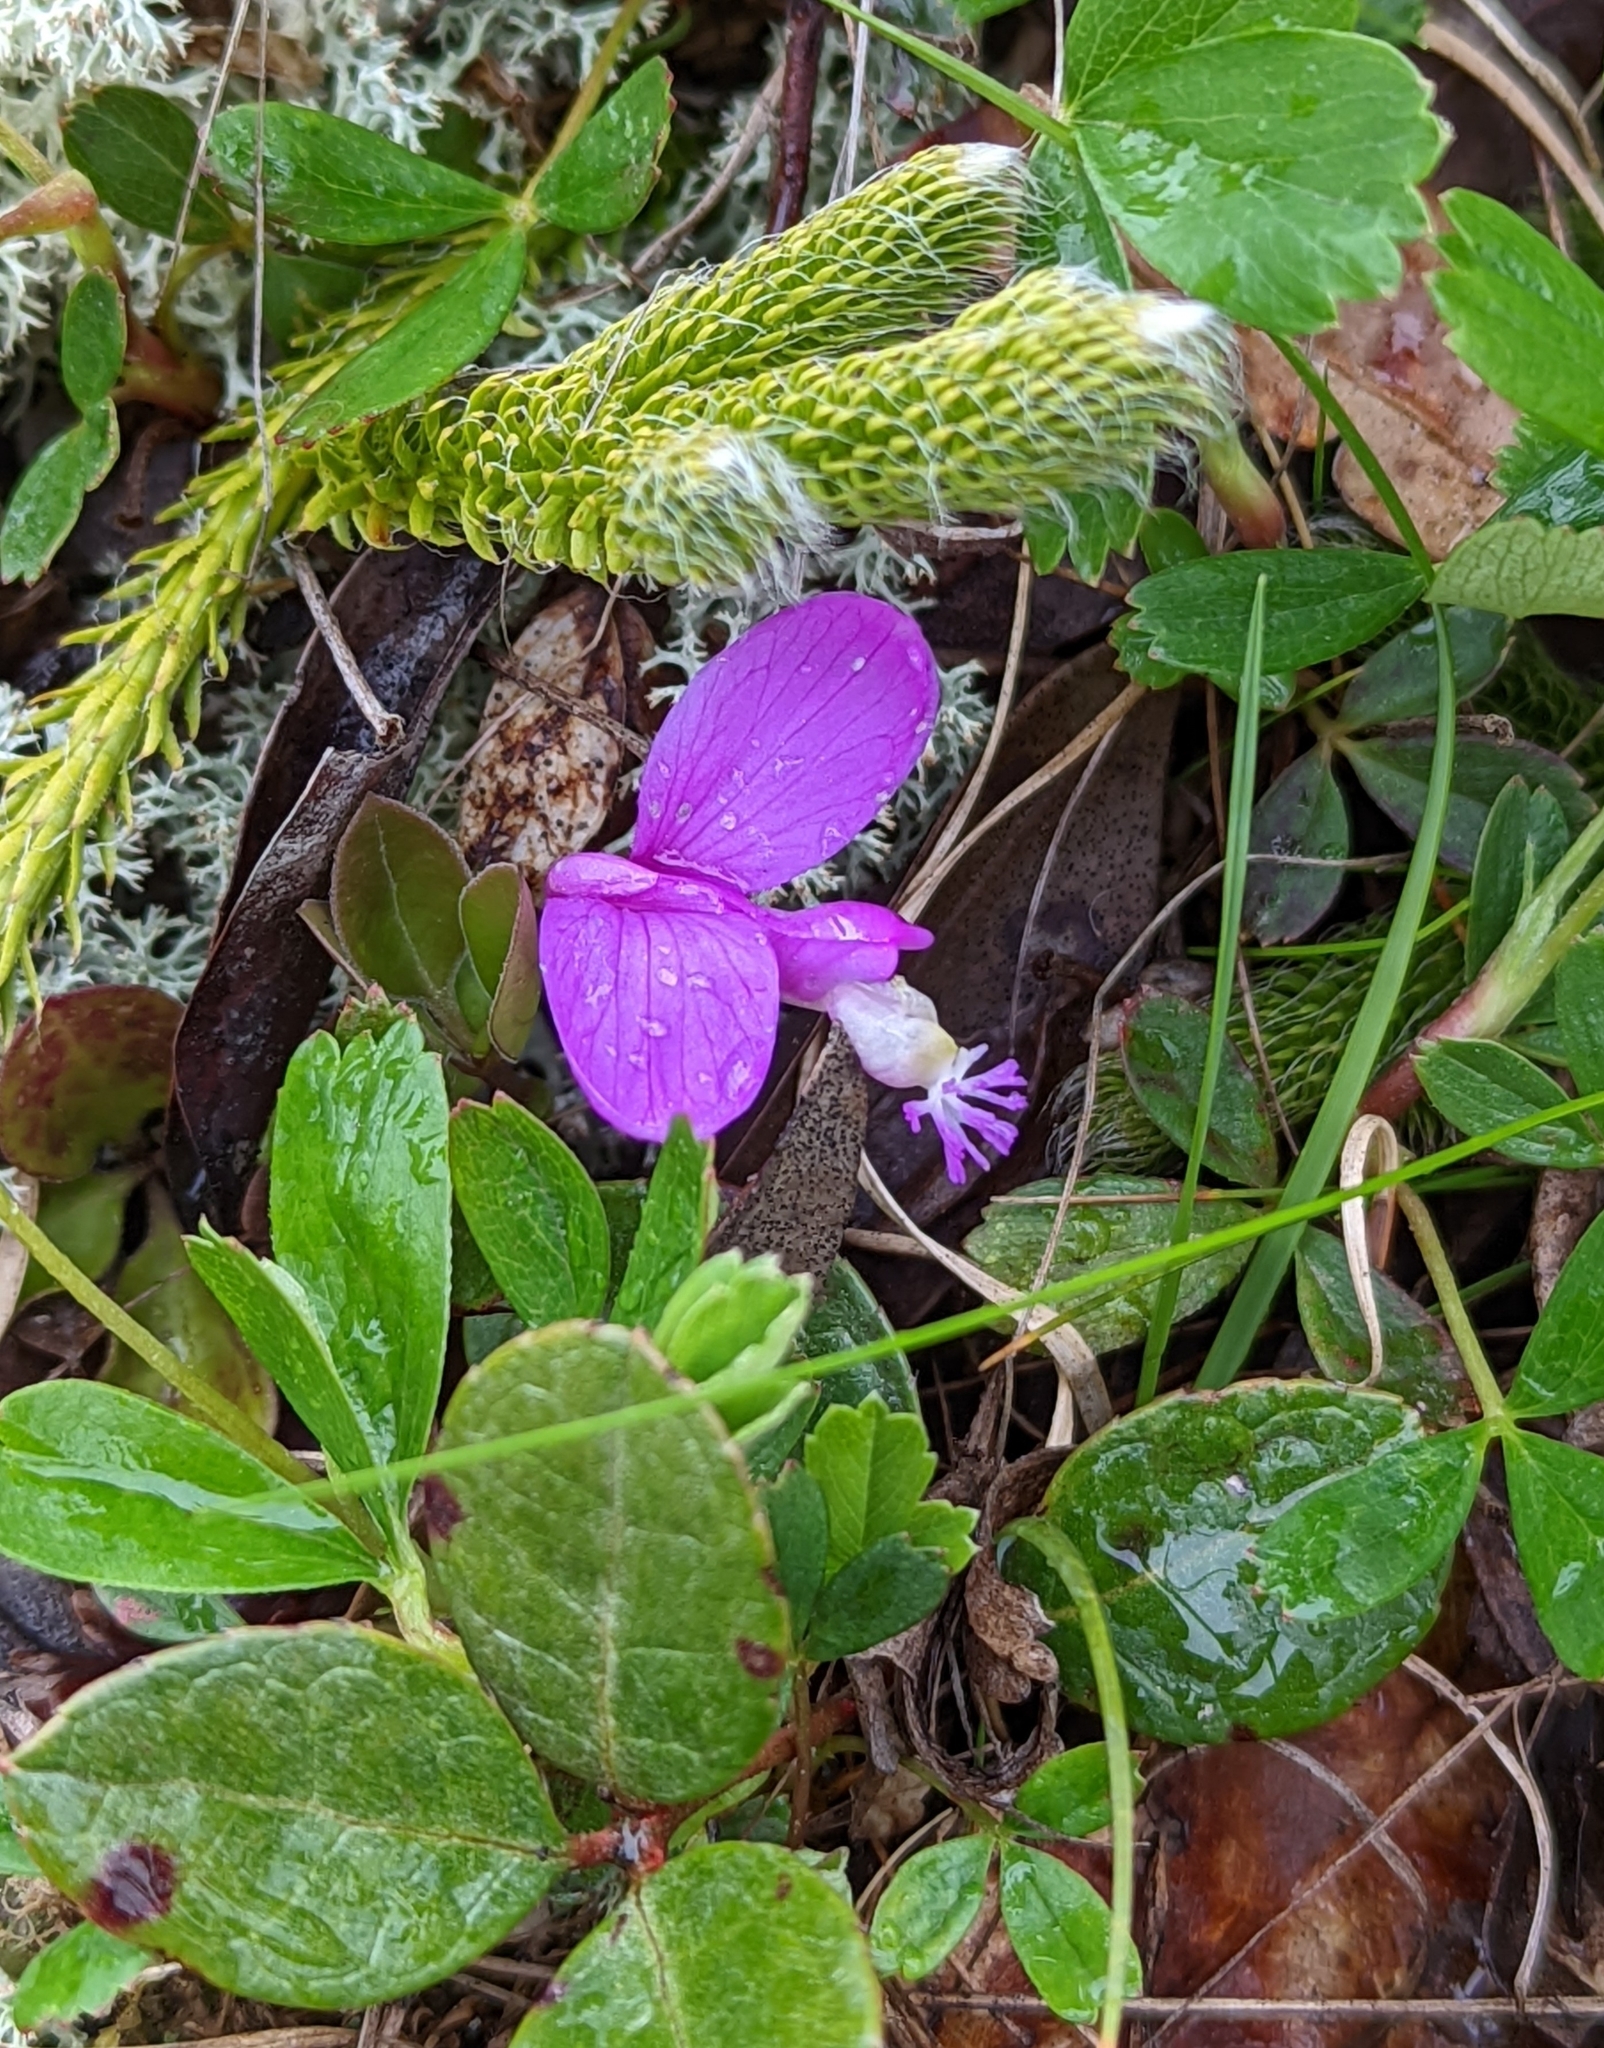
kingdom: Plantae
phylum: Tracheophyta
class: Magnoliopsida
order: Fabales
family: Polygalaceae
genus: Polygaloides
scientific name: Polygaloides paucifolia
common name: Bird-on-the-wing
